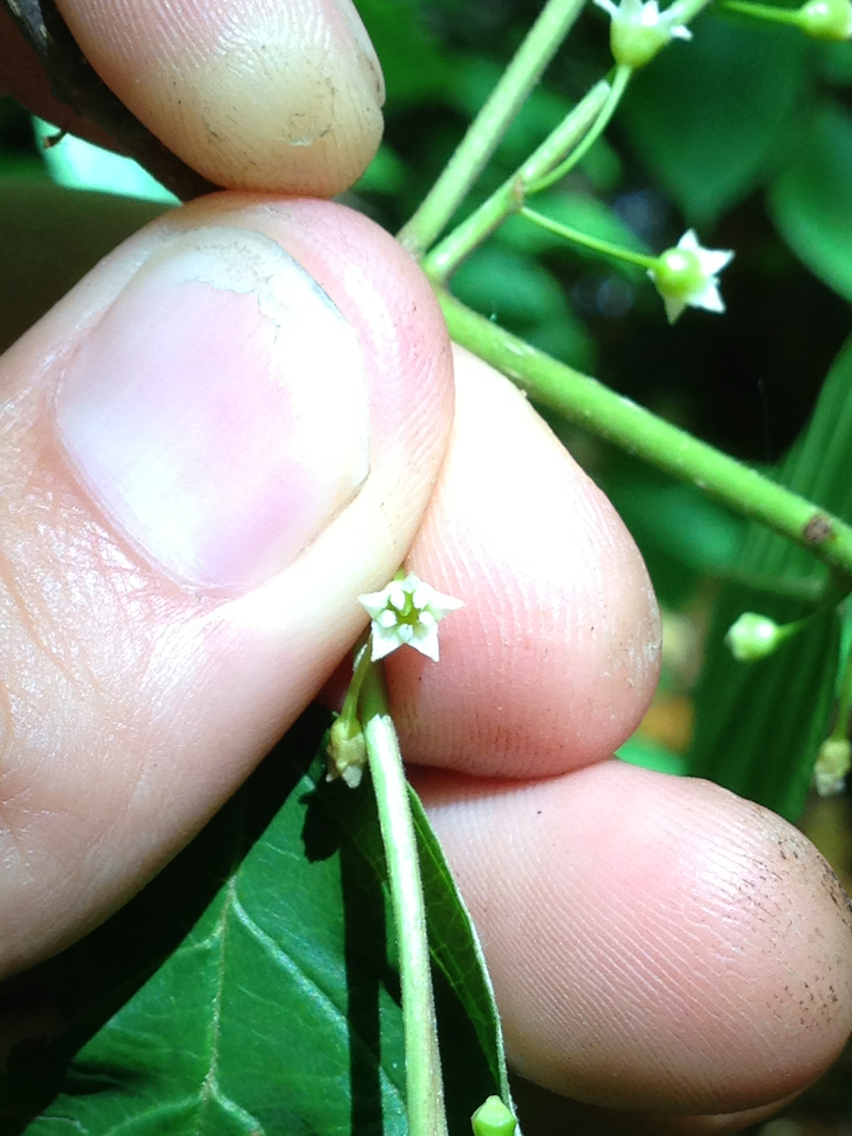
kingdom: Plantae
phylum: Tracheophyta
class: Magnoliopsida
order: Rosales
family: Rhamnaceae
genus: Frangula
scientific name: Frangula alnus
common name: Alder buckthorn
